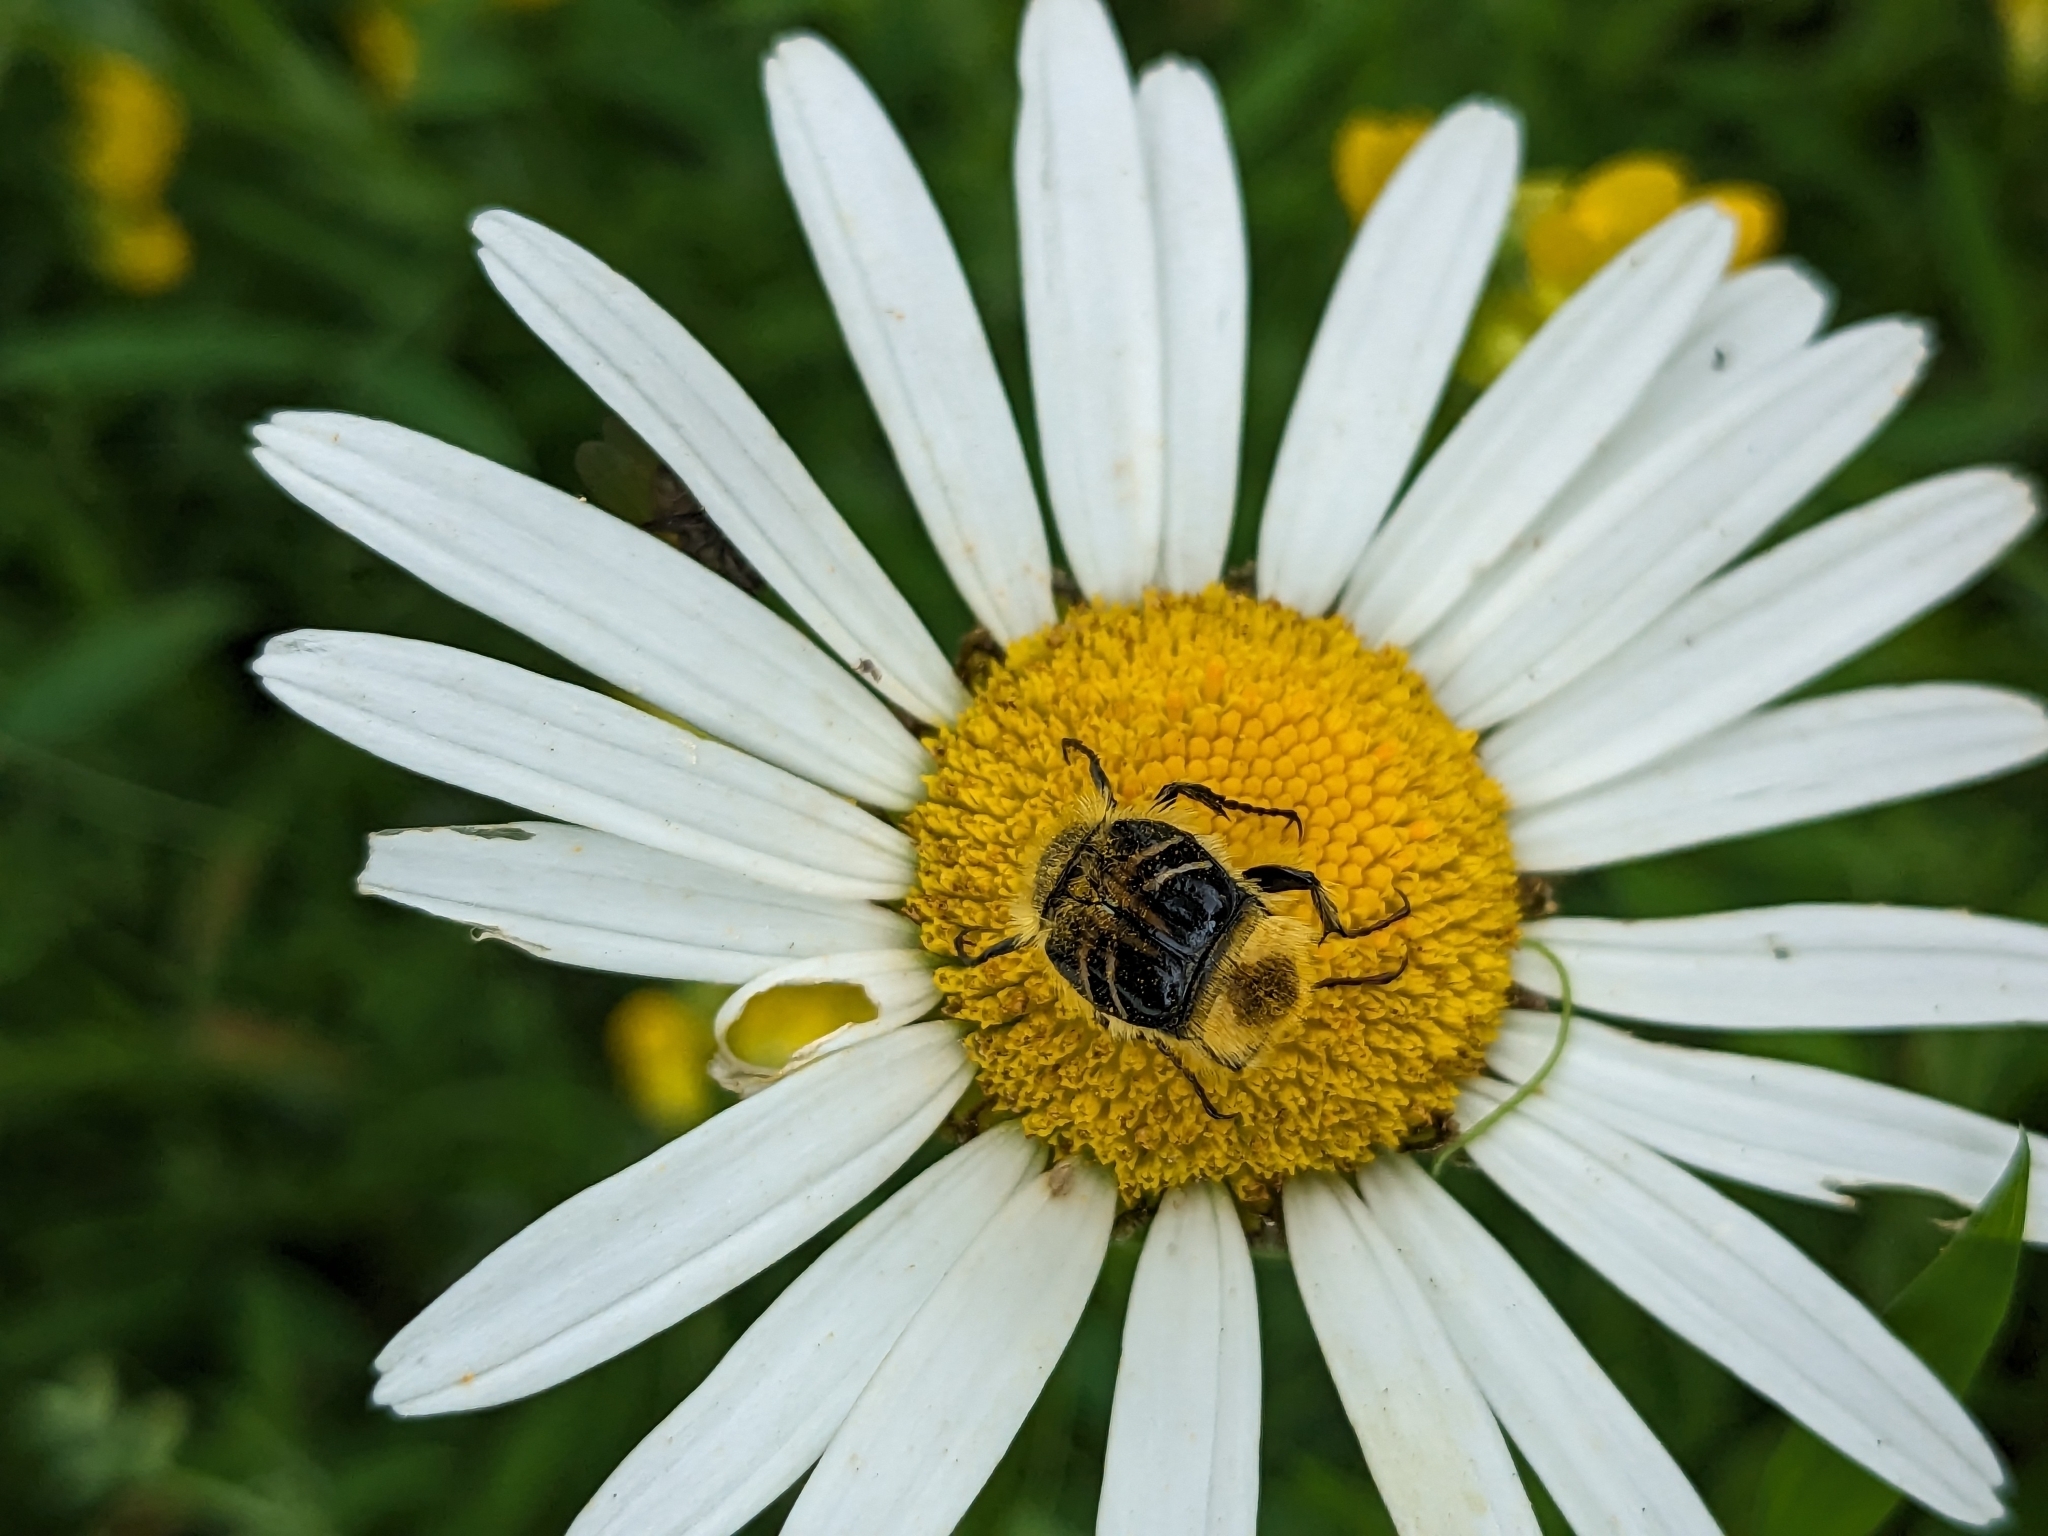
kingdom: Animalia
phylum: Arthropoda
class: Insecta
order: Coleoptera
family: Scarabaeidae
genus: Trichiotinus
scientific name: Trichiotinus assimilis
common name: Bee-mimic beetle
